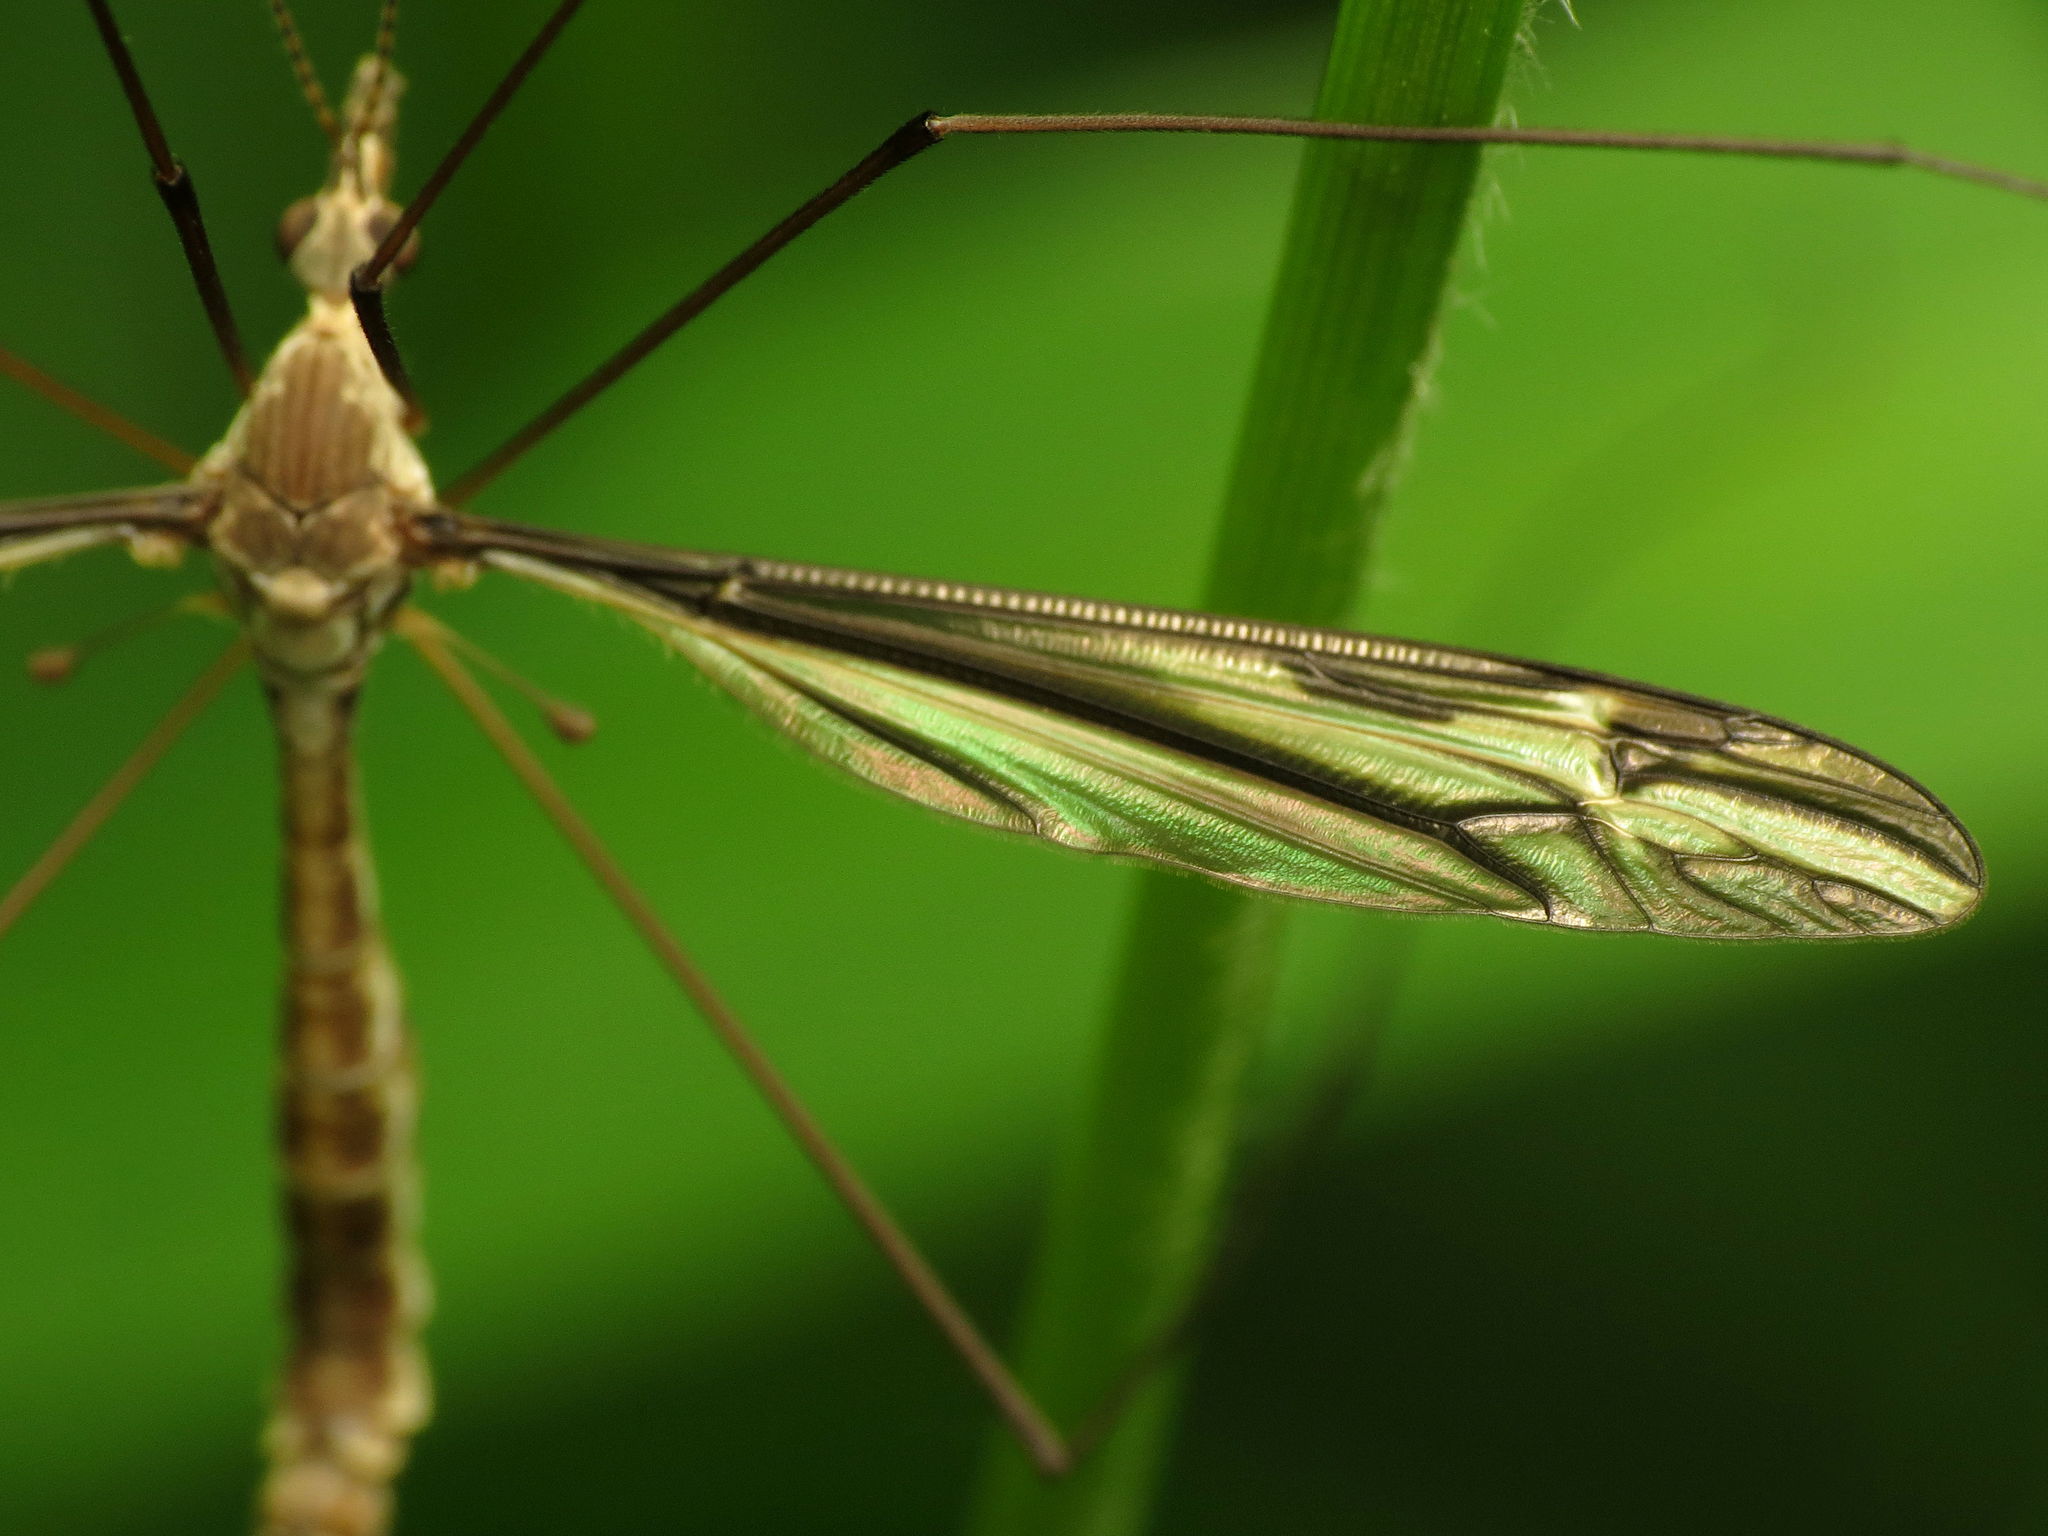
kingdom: Animalia
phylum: Arthropoda
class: Insecta
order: Diptera
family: Tipulidae
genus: Tipula
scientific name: Tipula furca
